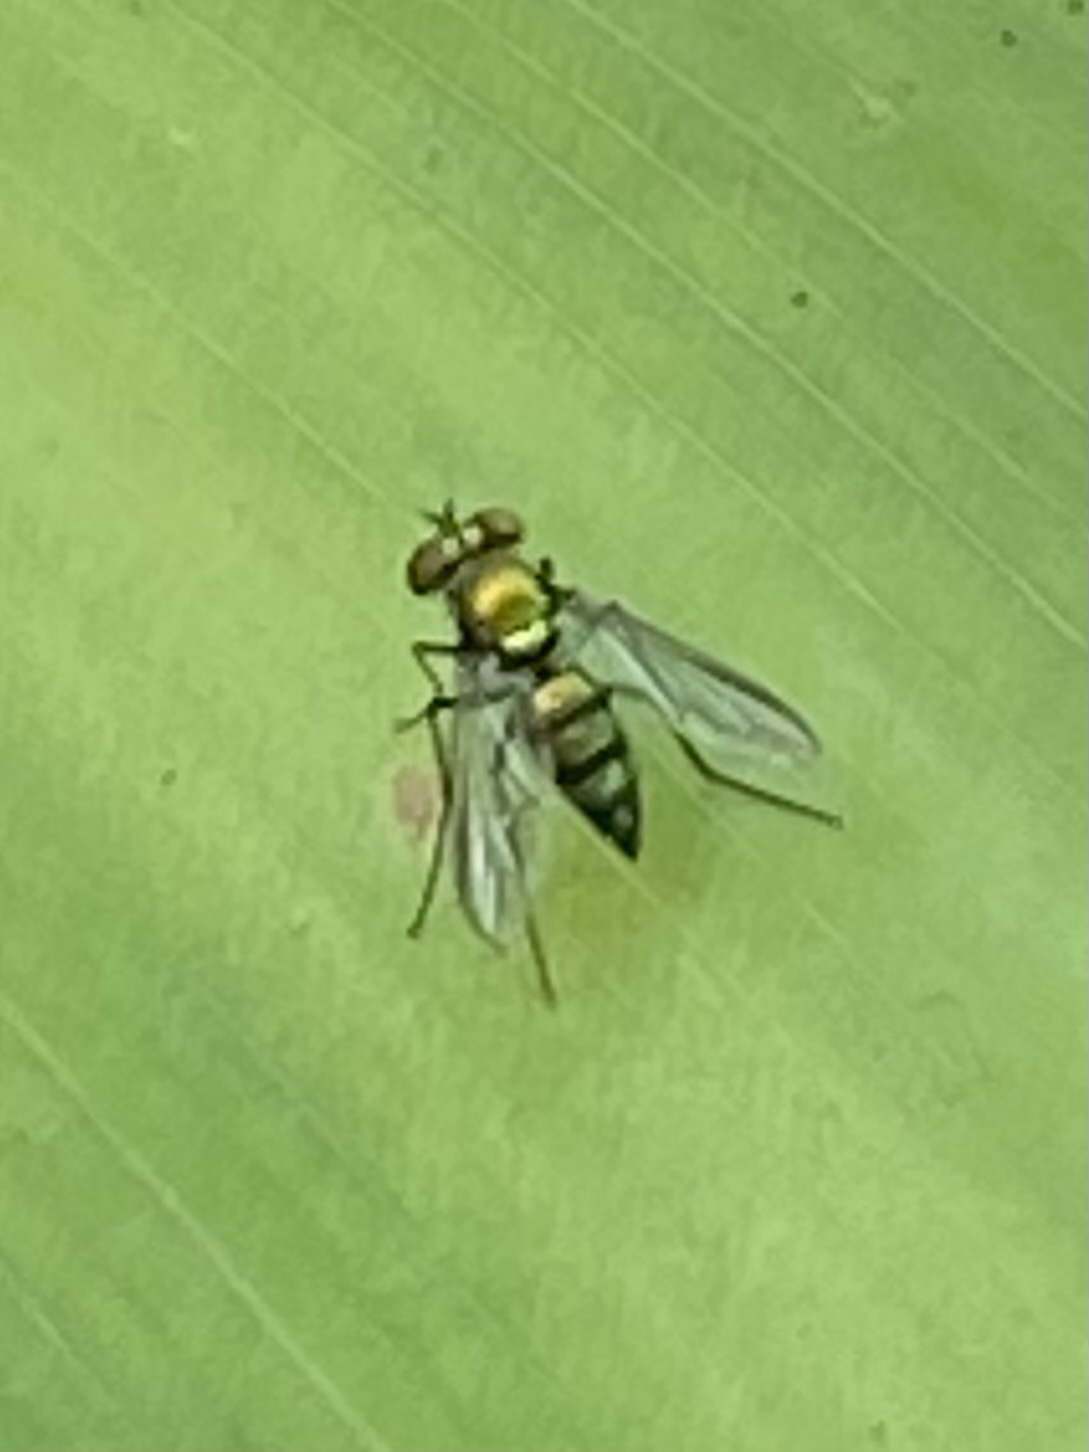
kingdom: Animalia
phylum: Arthropoda
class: Insecta
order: Diptera
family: Dolichopodidae
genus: Condylostylus
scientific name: Condylostylus longicornis
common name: Long-legged fly
